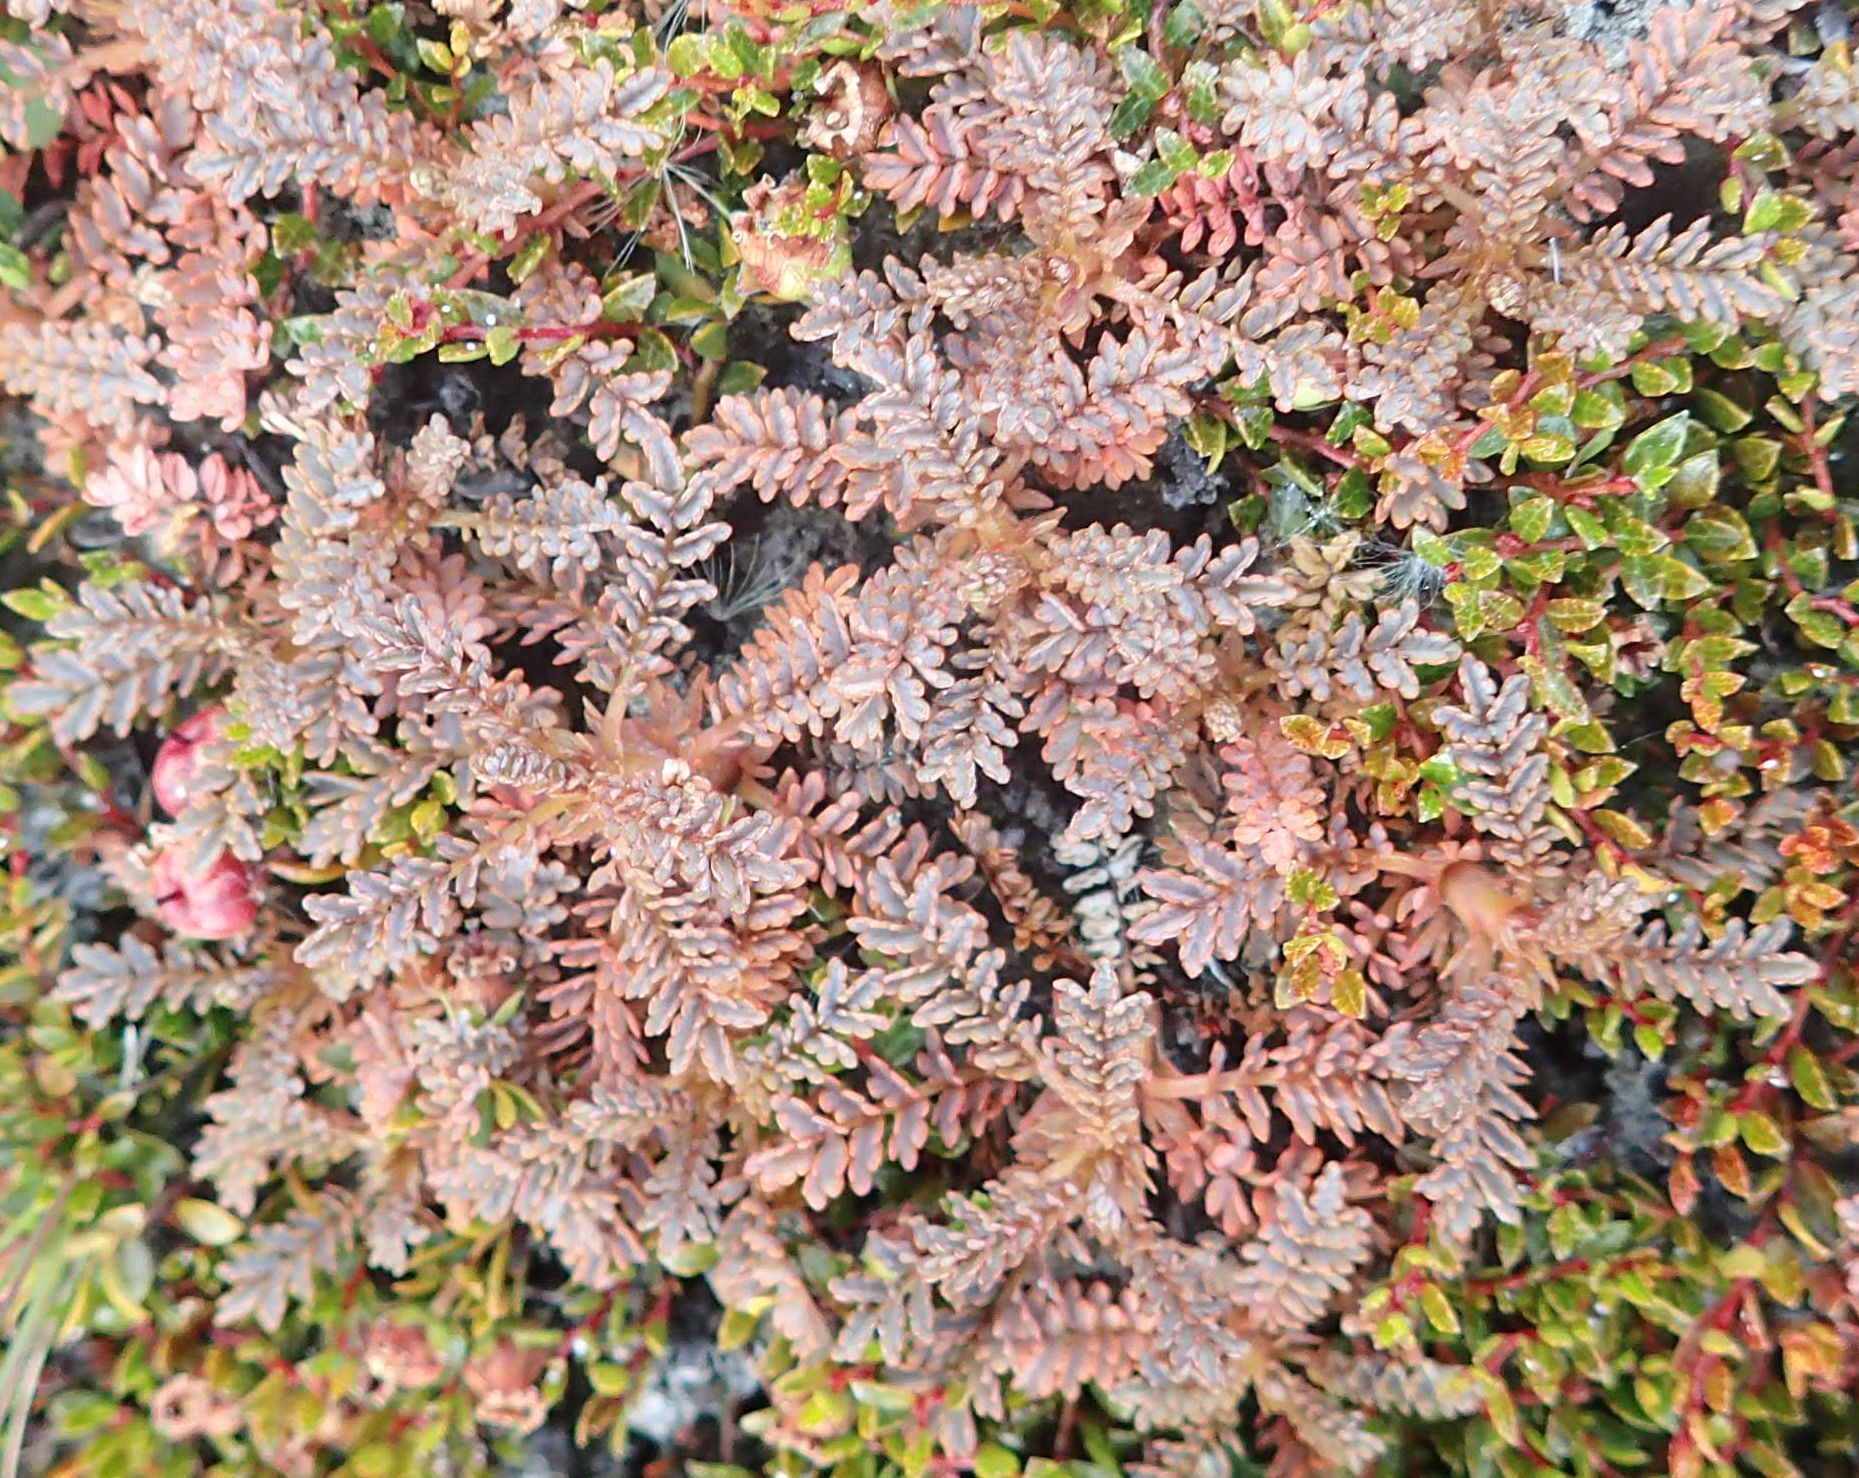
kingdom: Plantae
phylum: Tracheophyta
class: Magnoliopsida
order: Rosales
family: Rosaceae
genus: Acaena
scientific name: Acaena saccaticupula
